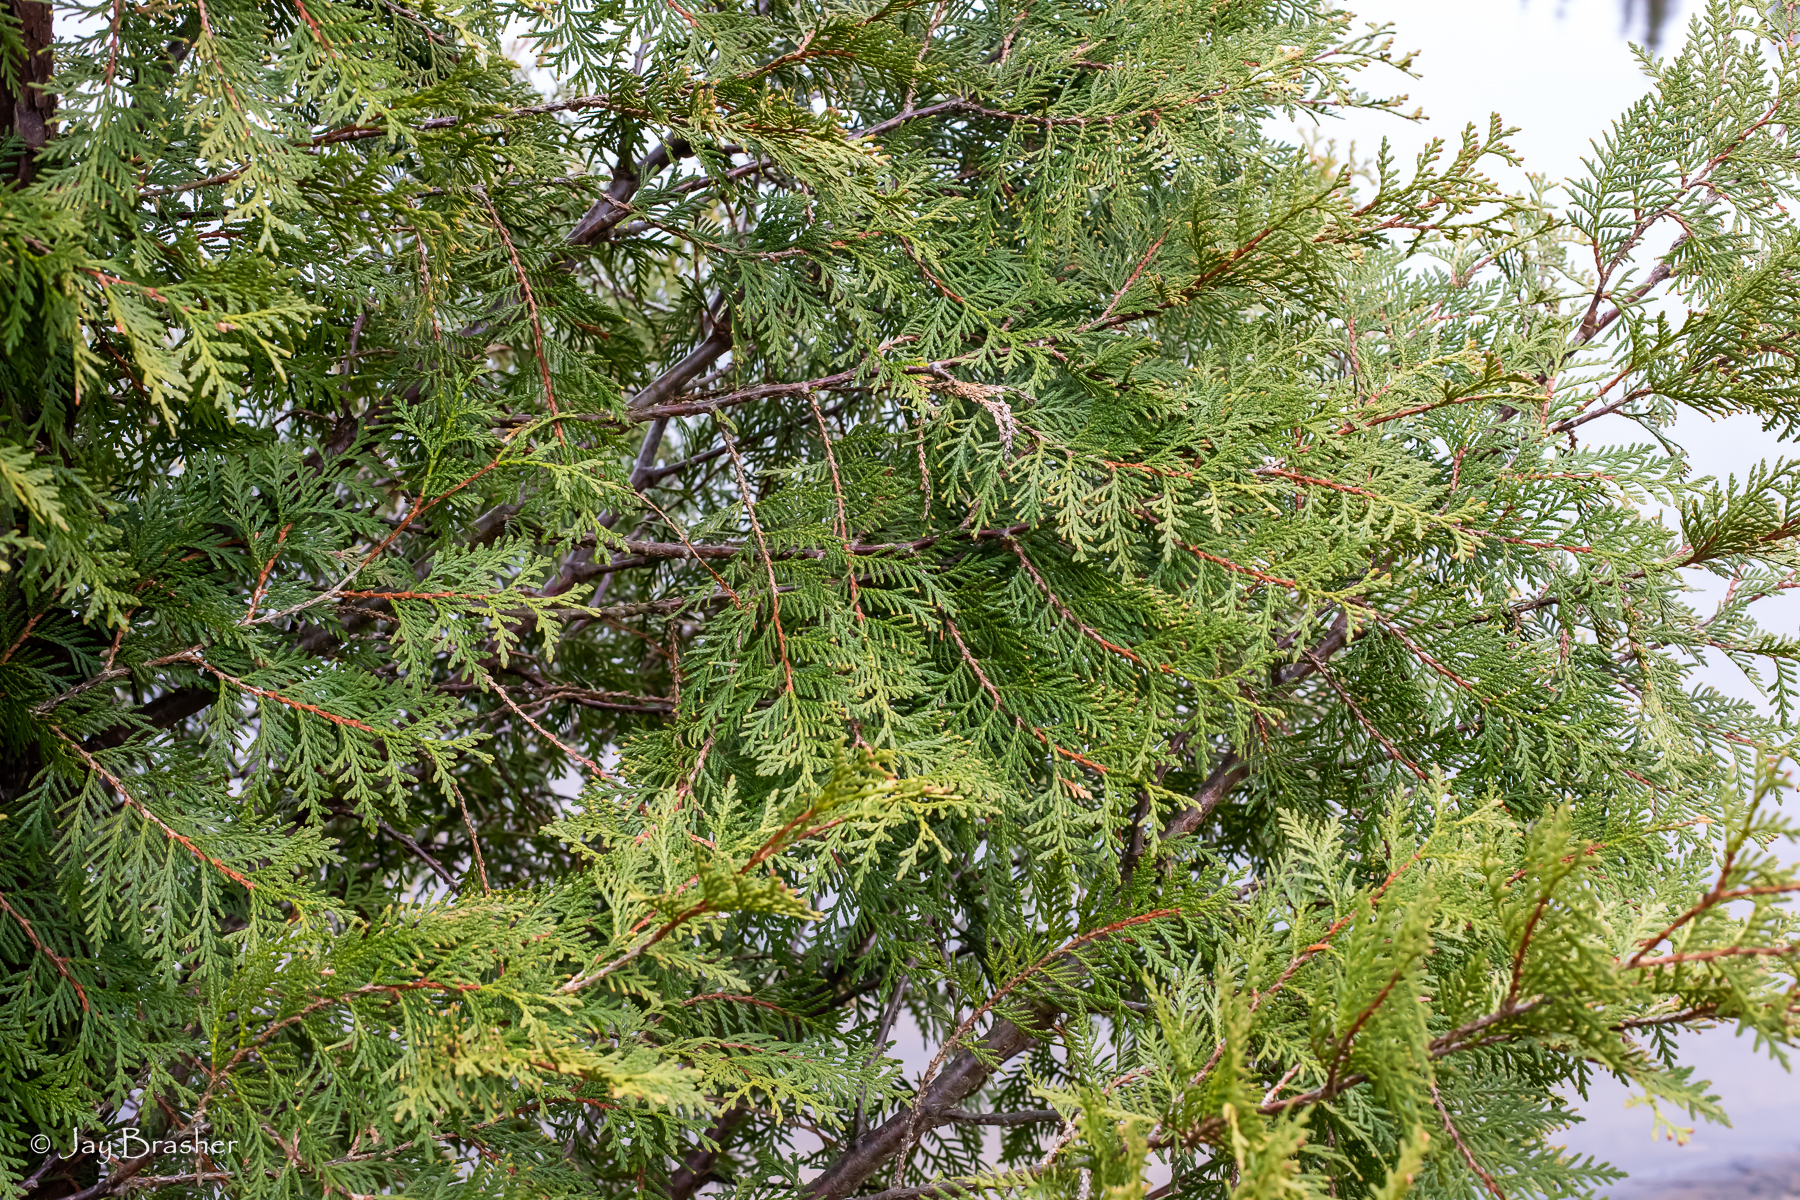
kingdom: Plantae
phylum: Tracheophyta
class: Pinopsida
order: Pinales
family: Cupressaceae
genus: Thuja
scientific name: Thuja occidentalis
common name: Northern white-cedar
